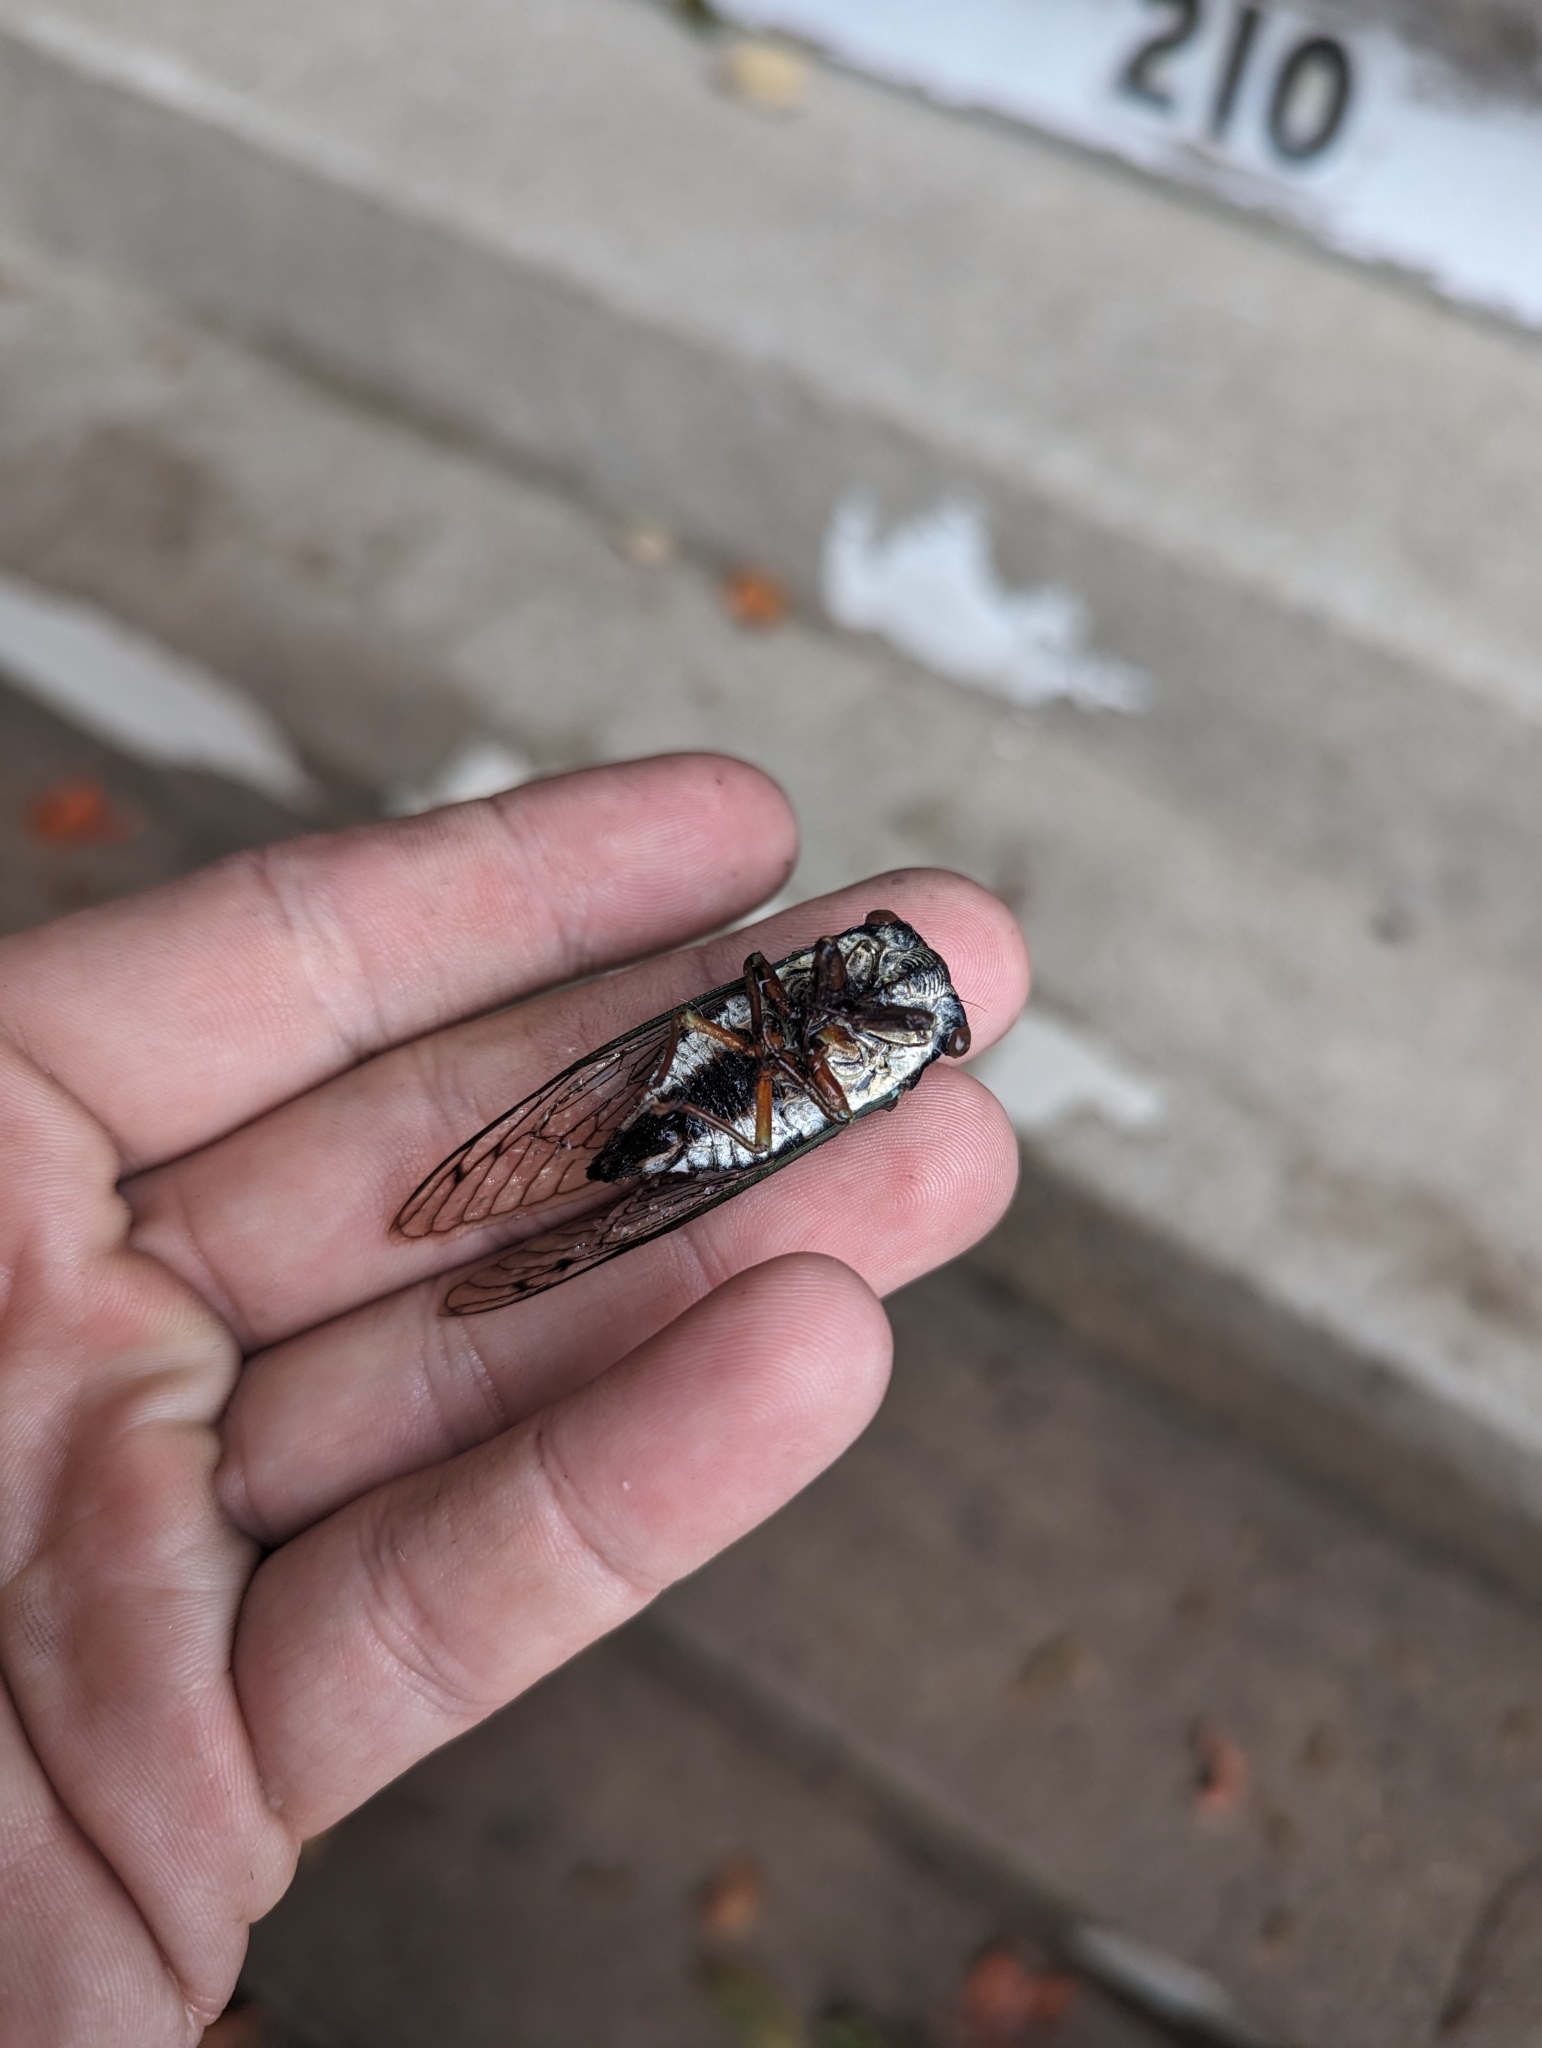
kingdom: Animalia
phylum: Arthropoda
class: Insecta
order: Hemiptera
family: Cicadidae
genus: Neotibicen
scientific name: Neotibicen lyricen
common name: Lyric cicada
